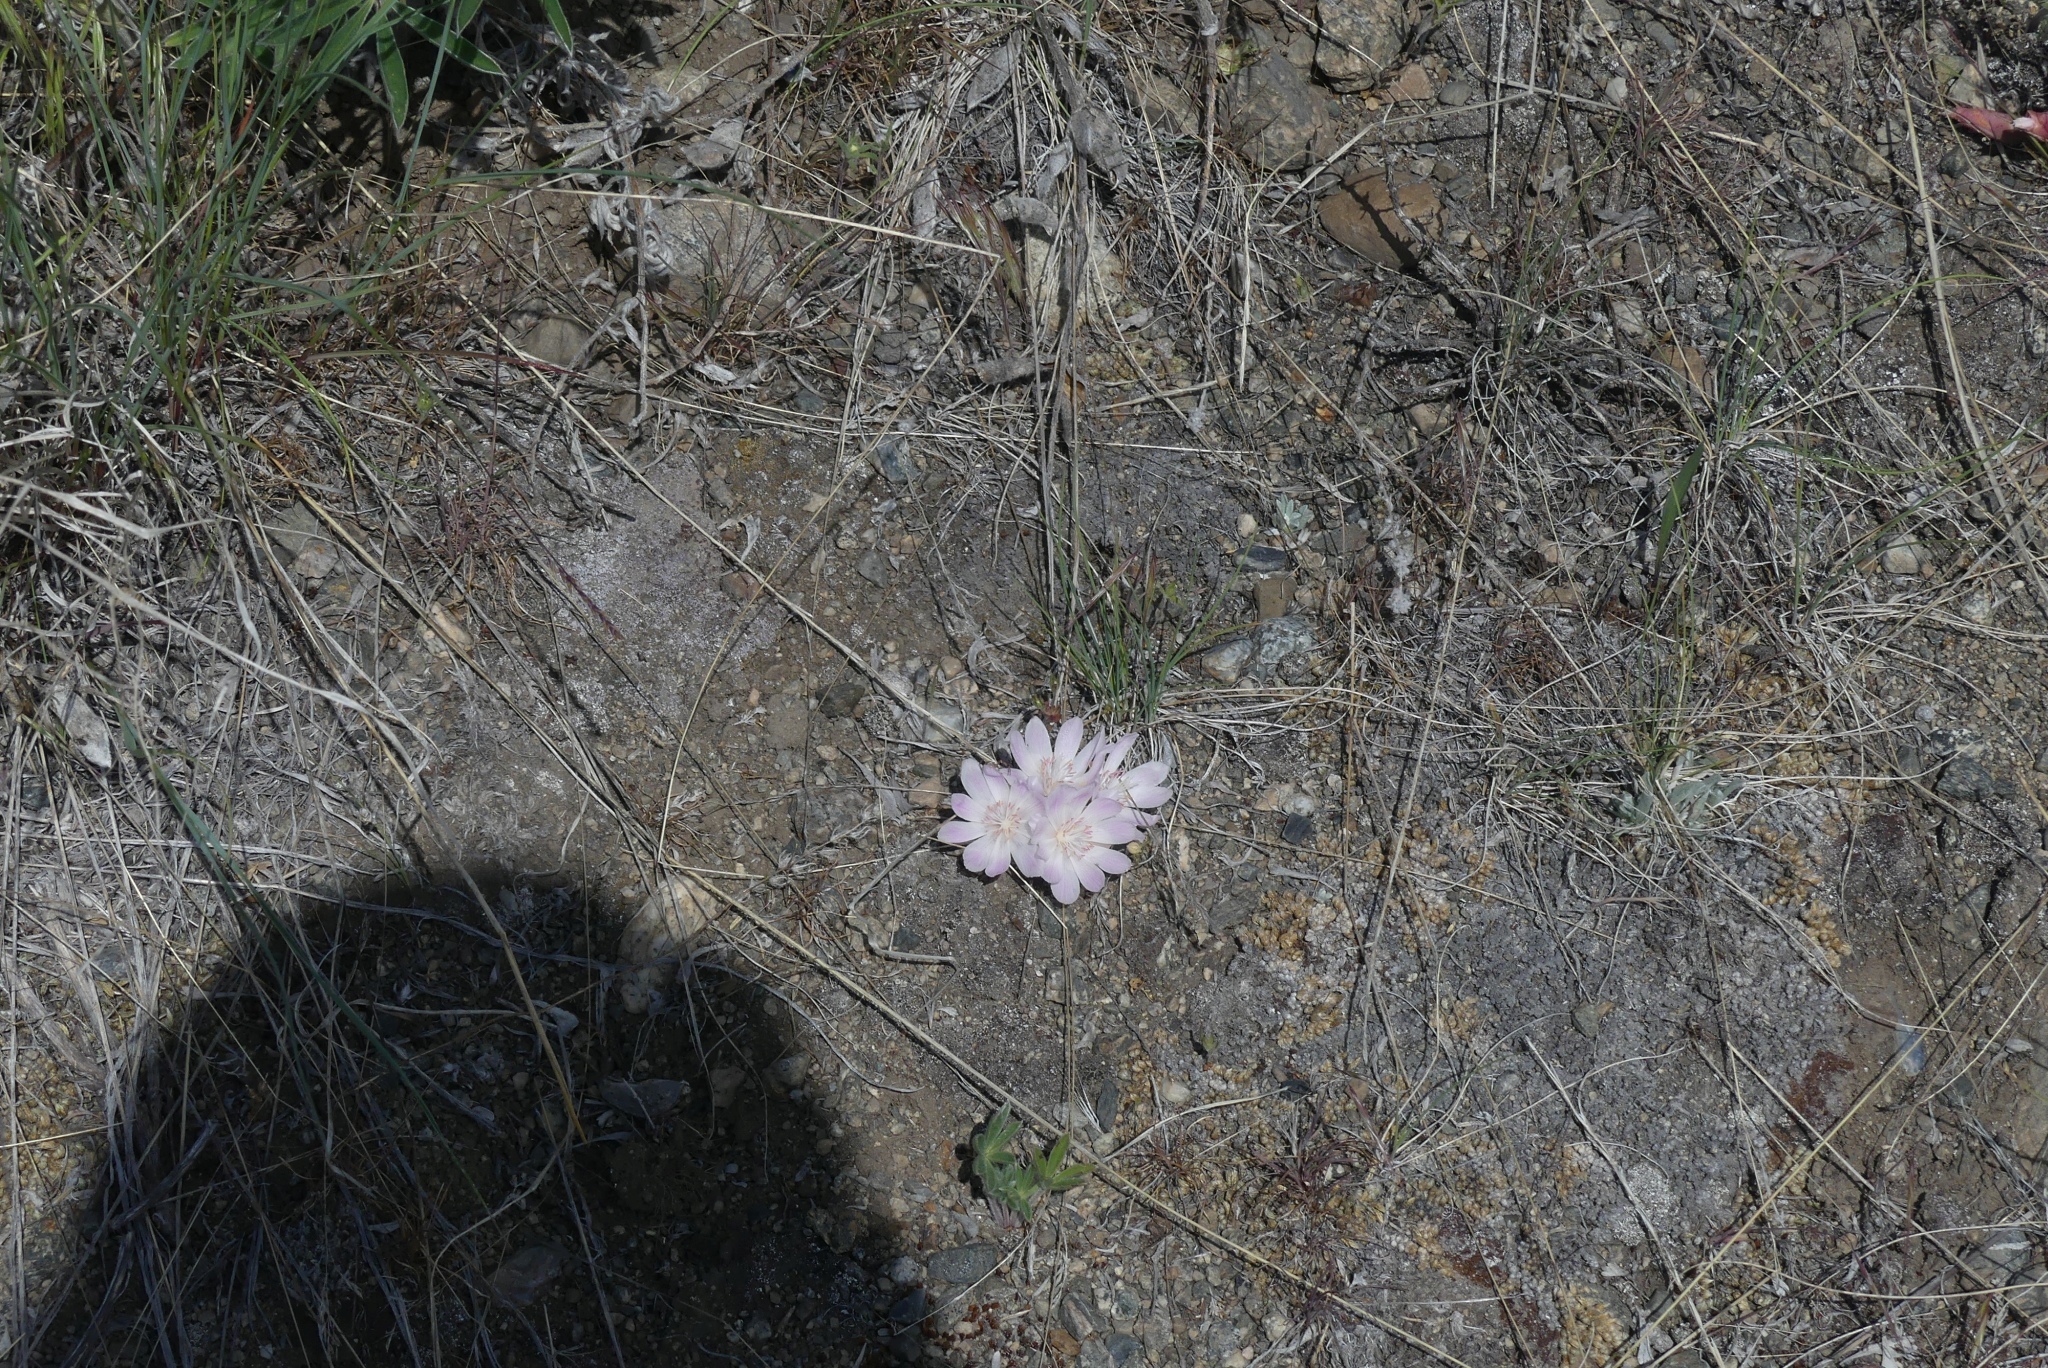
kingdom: Plantae
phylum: Tracheophyta
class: Magnoliopsida
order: Caryophyllales
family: Montiaceae
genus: Lewisia
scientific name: Lewisia rediviva
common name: Bitter-root
